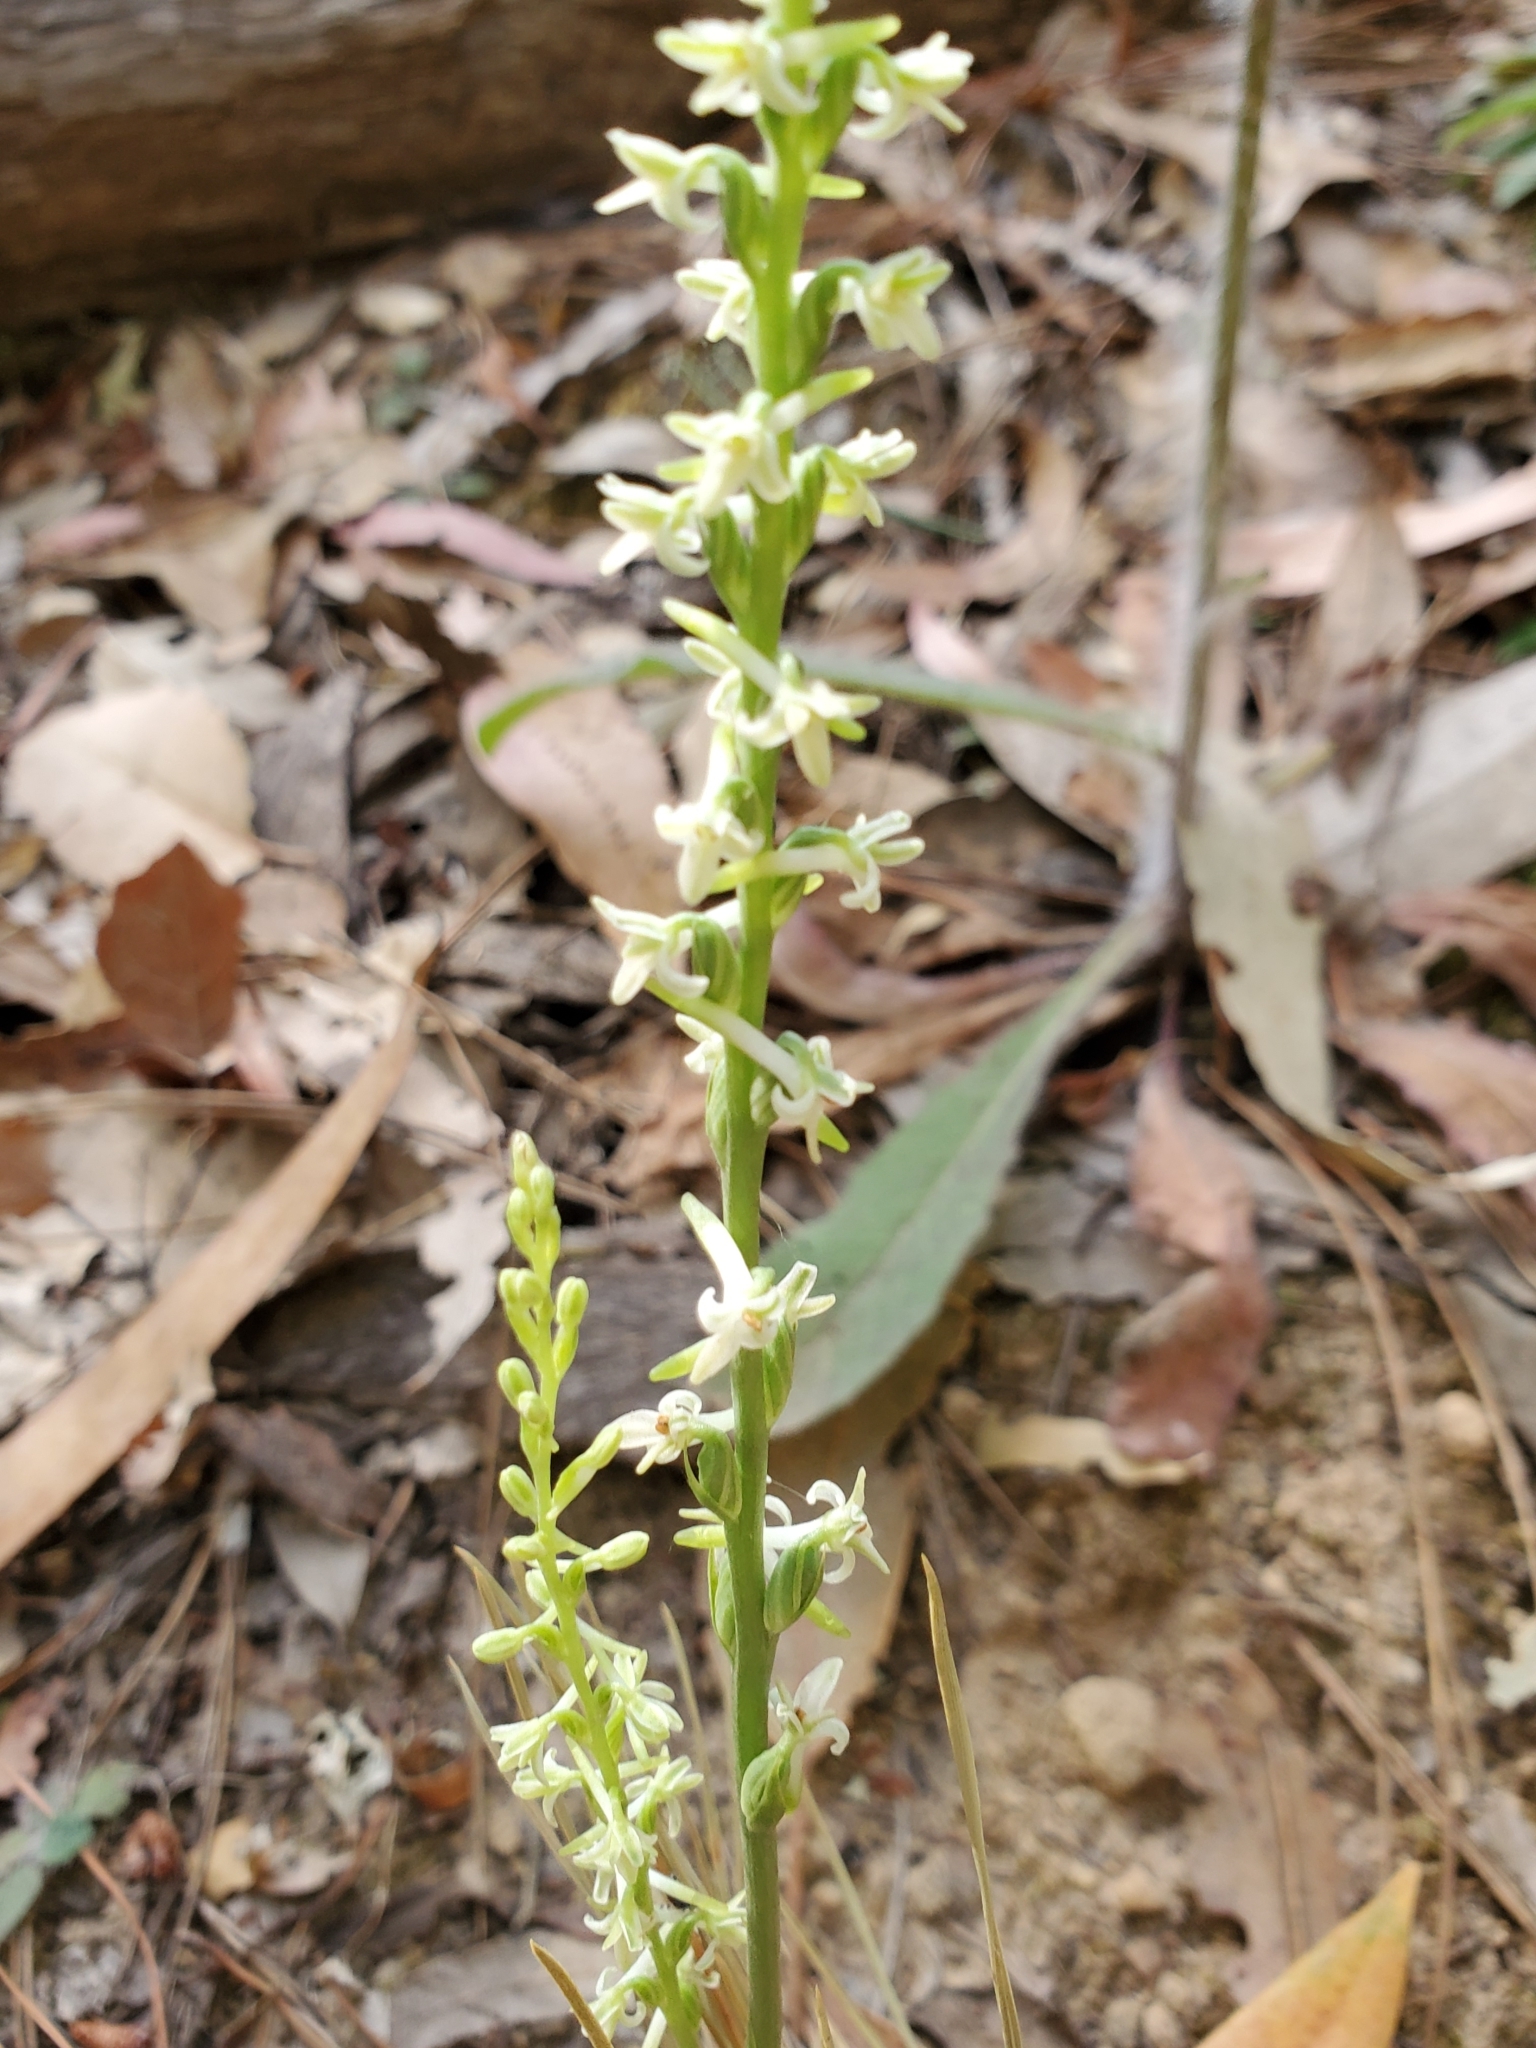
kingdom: Plantae
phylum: Tracheophyta
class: Liliopsida
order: Asparagales
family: Orchidaceae
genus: Platanthera
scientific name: Platanthera transversa
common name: Royal rein orchid
